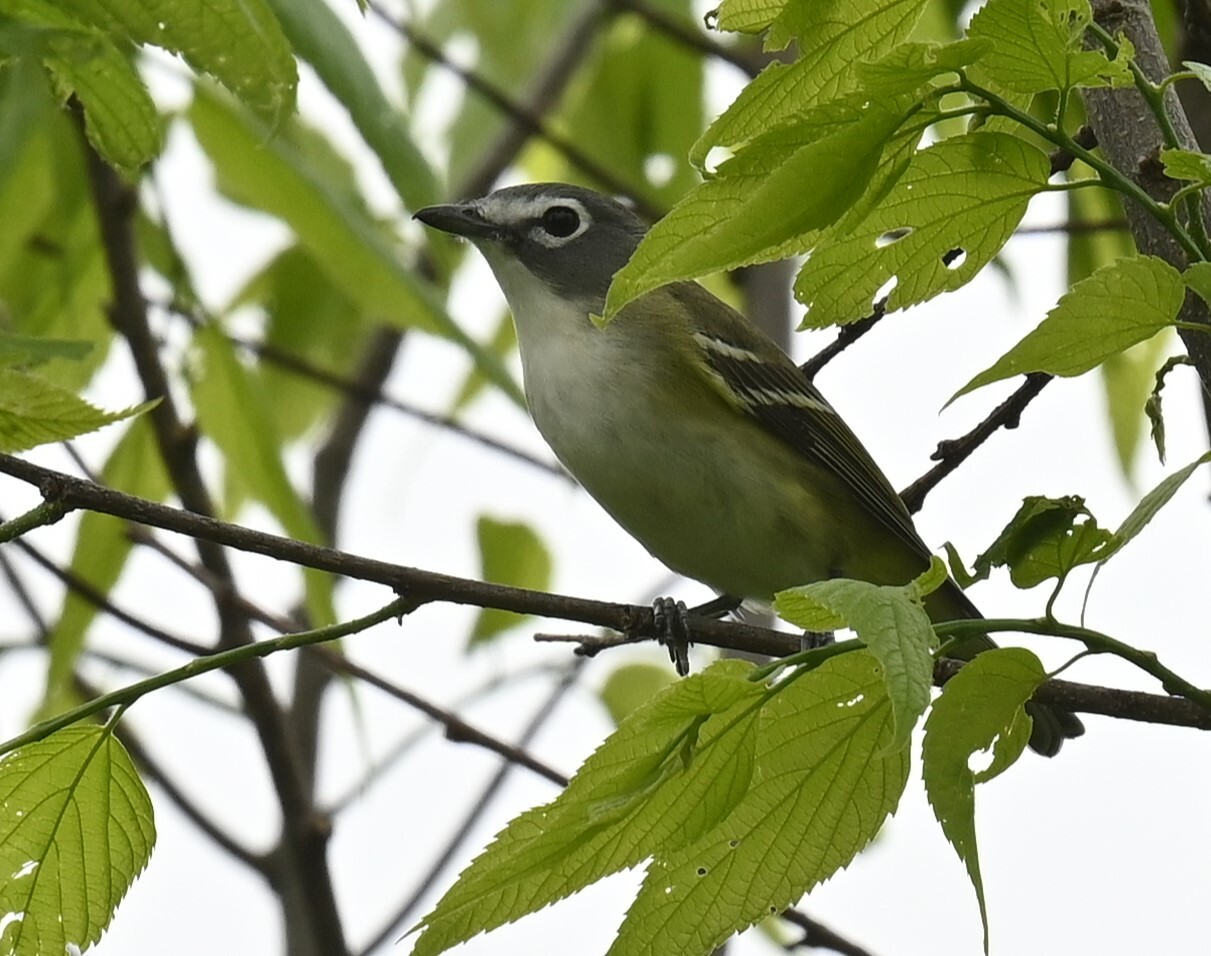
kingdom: Animalia
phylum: Chordata
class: Aves
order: Passeriformes
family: Vireonidae
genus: Vireo
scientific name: Vireo solitarius
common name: Blue-headed vireo
